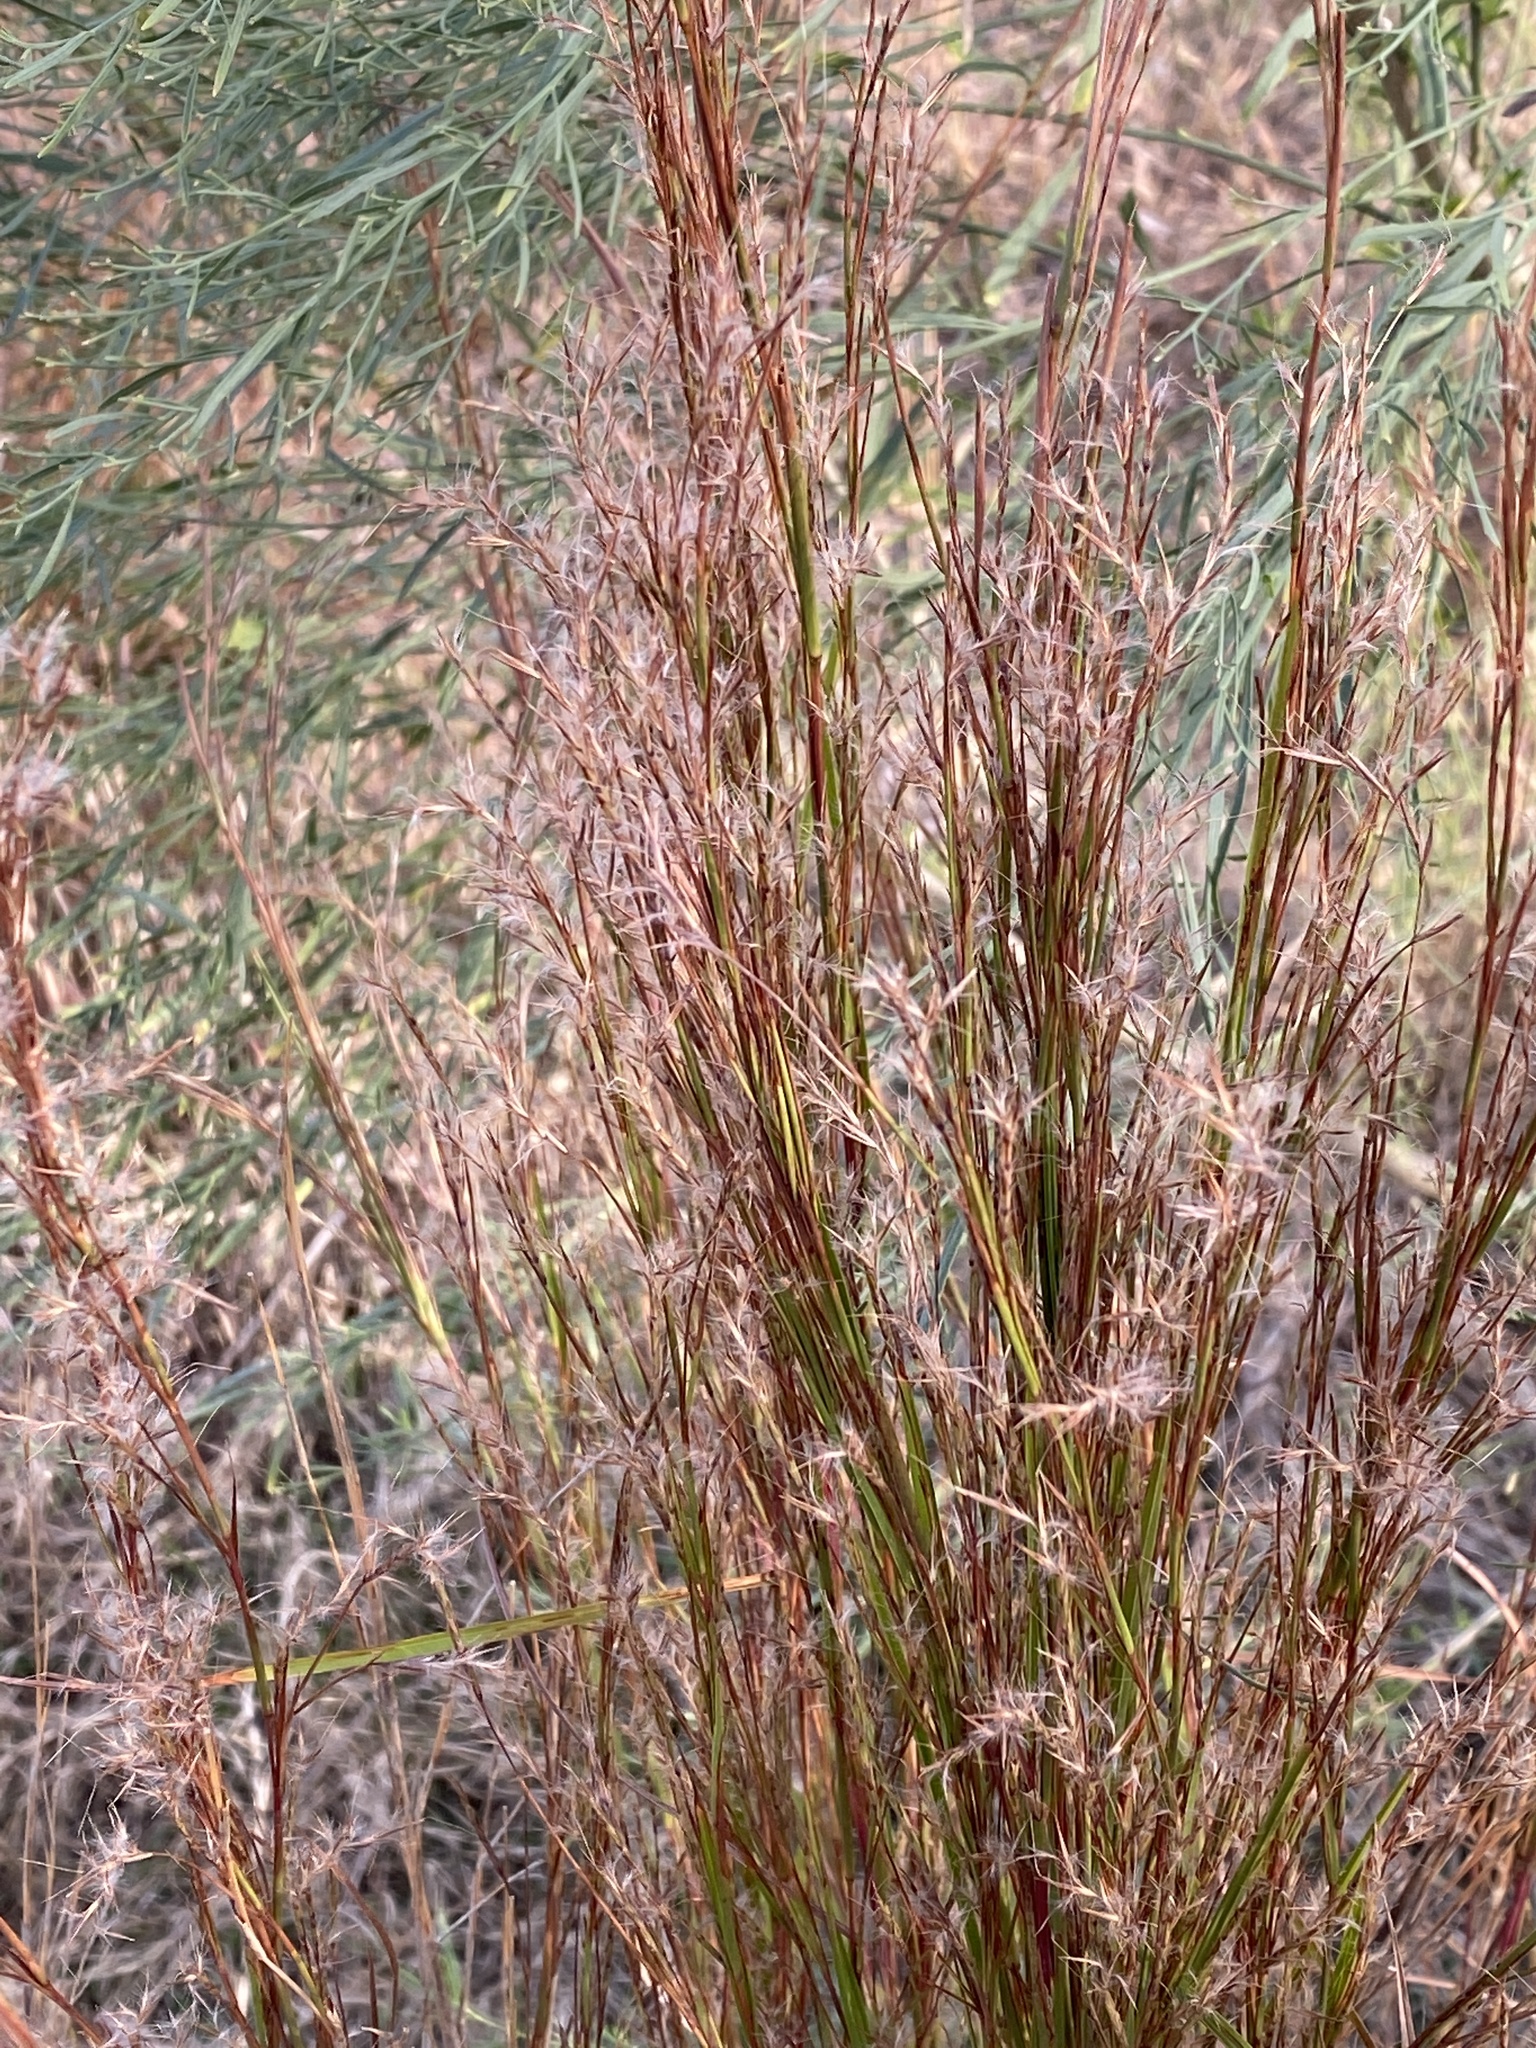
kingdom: Plantae
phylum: Tracheophyta
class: Liliopsida
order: Poales
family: Poaceae
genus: Schizachyrium
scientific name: Schizachyrium scoparium
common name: Little bluestem
